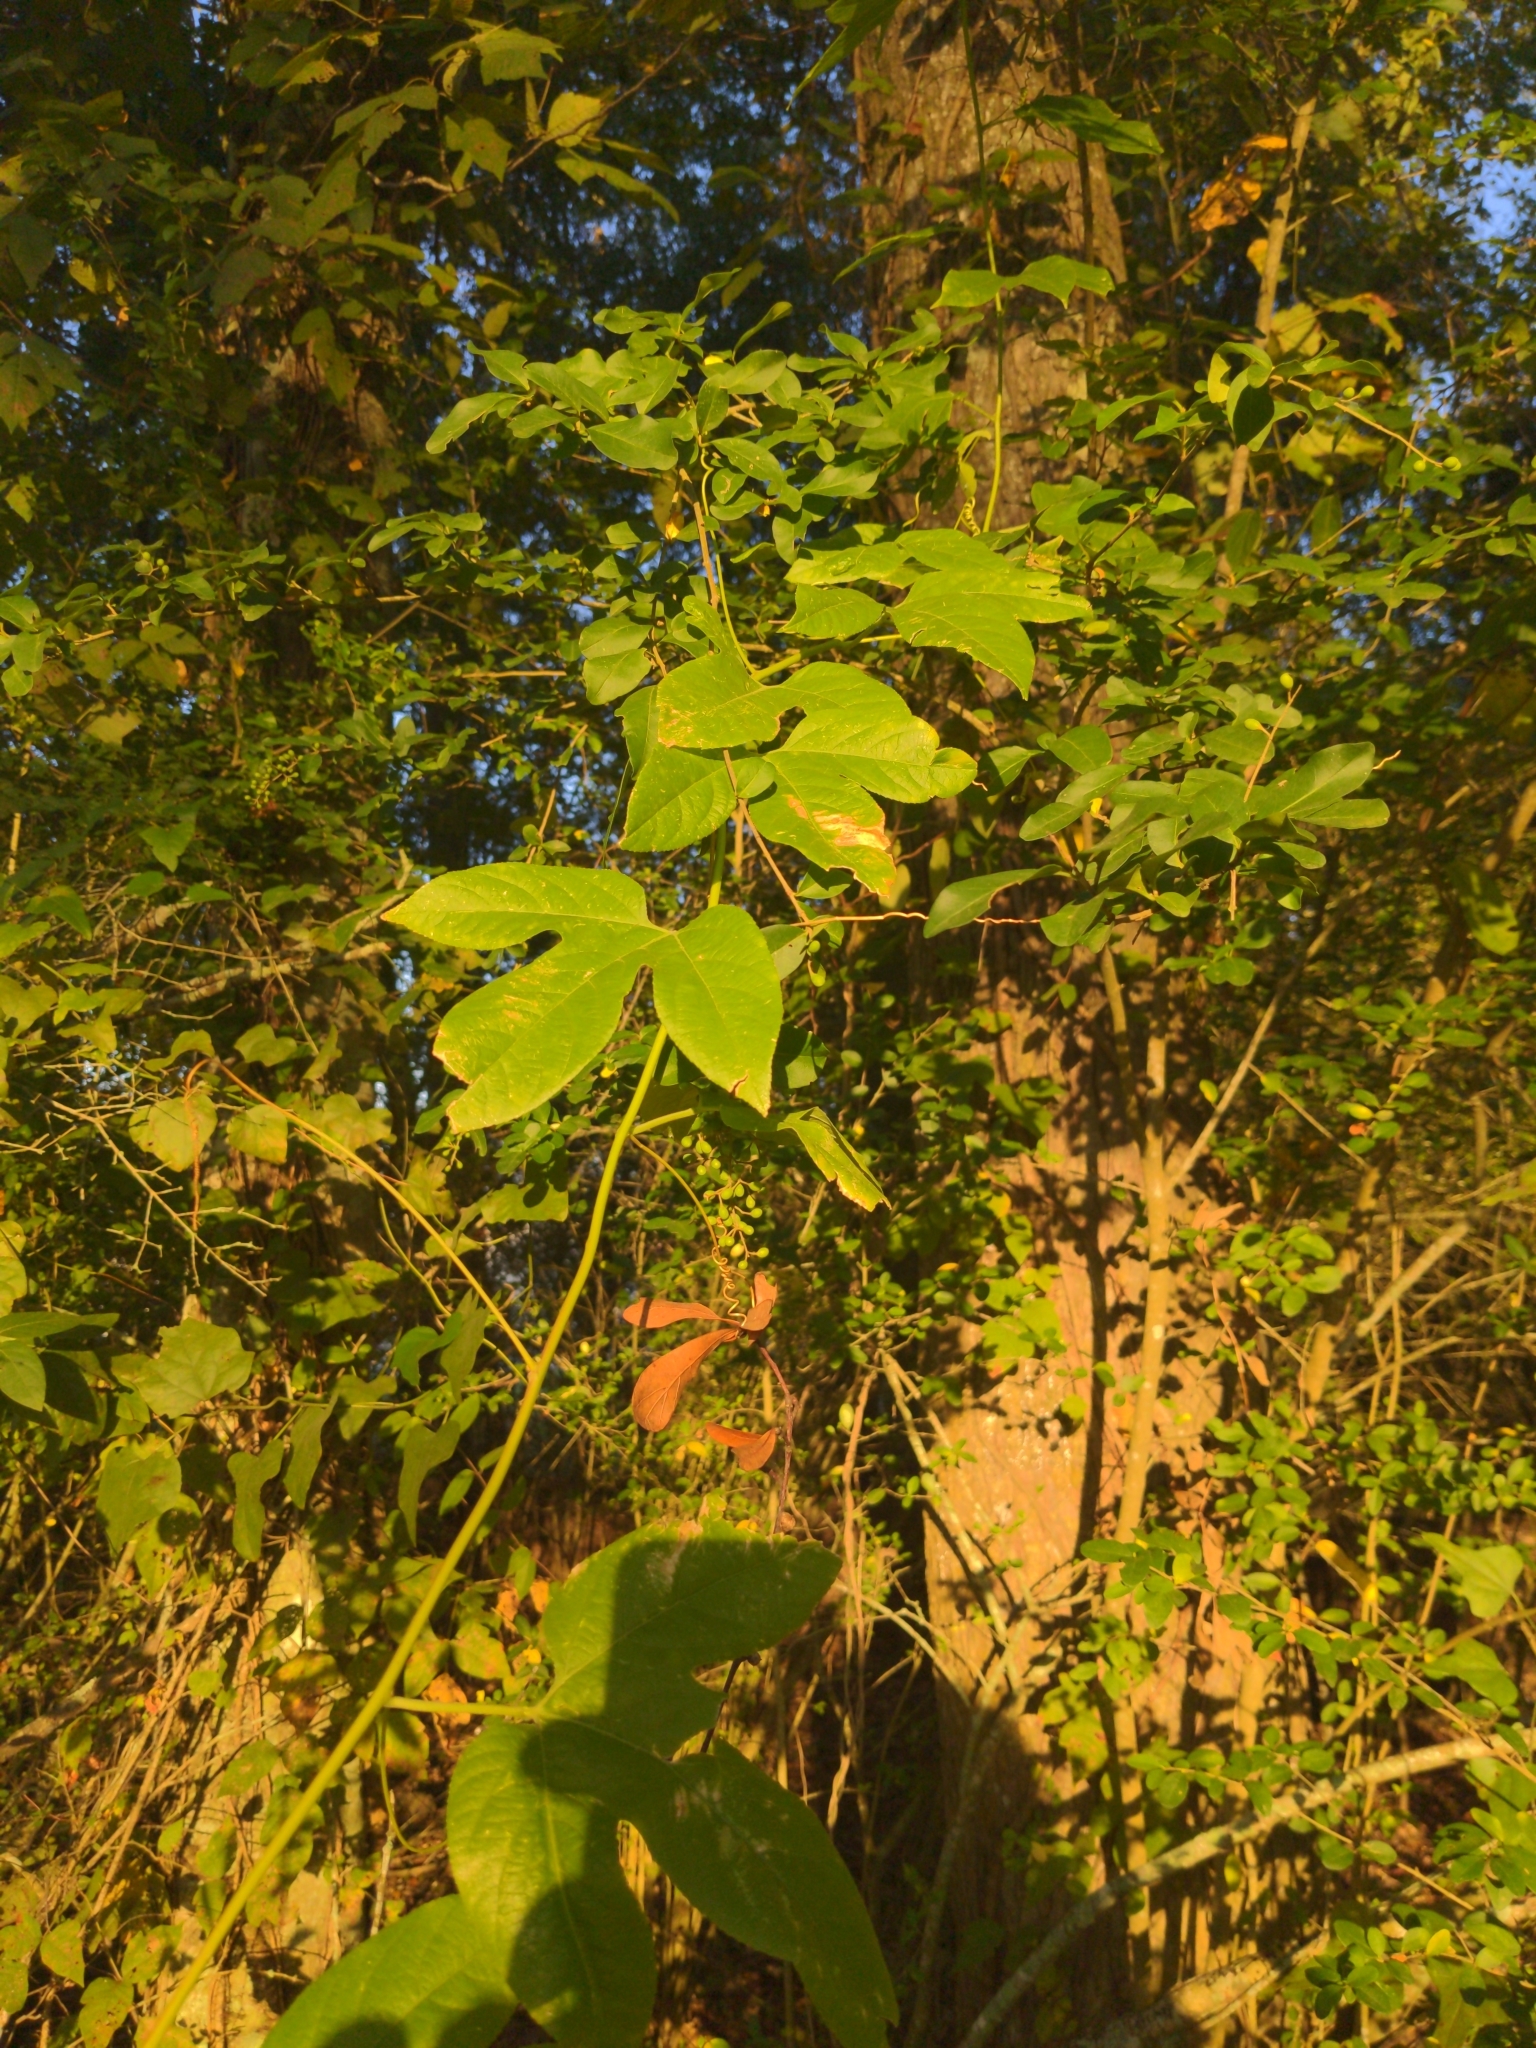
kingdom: Plantae
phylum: Tracheophyta
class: Magnoliopsida
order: Malpighiales
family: Passifloraceae
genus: Passiflora
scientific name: Passiflora incarnata
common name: Apricot-vine
